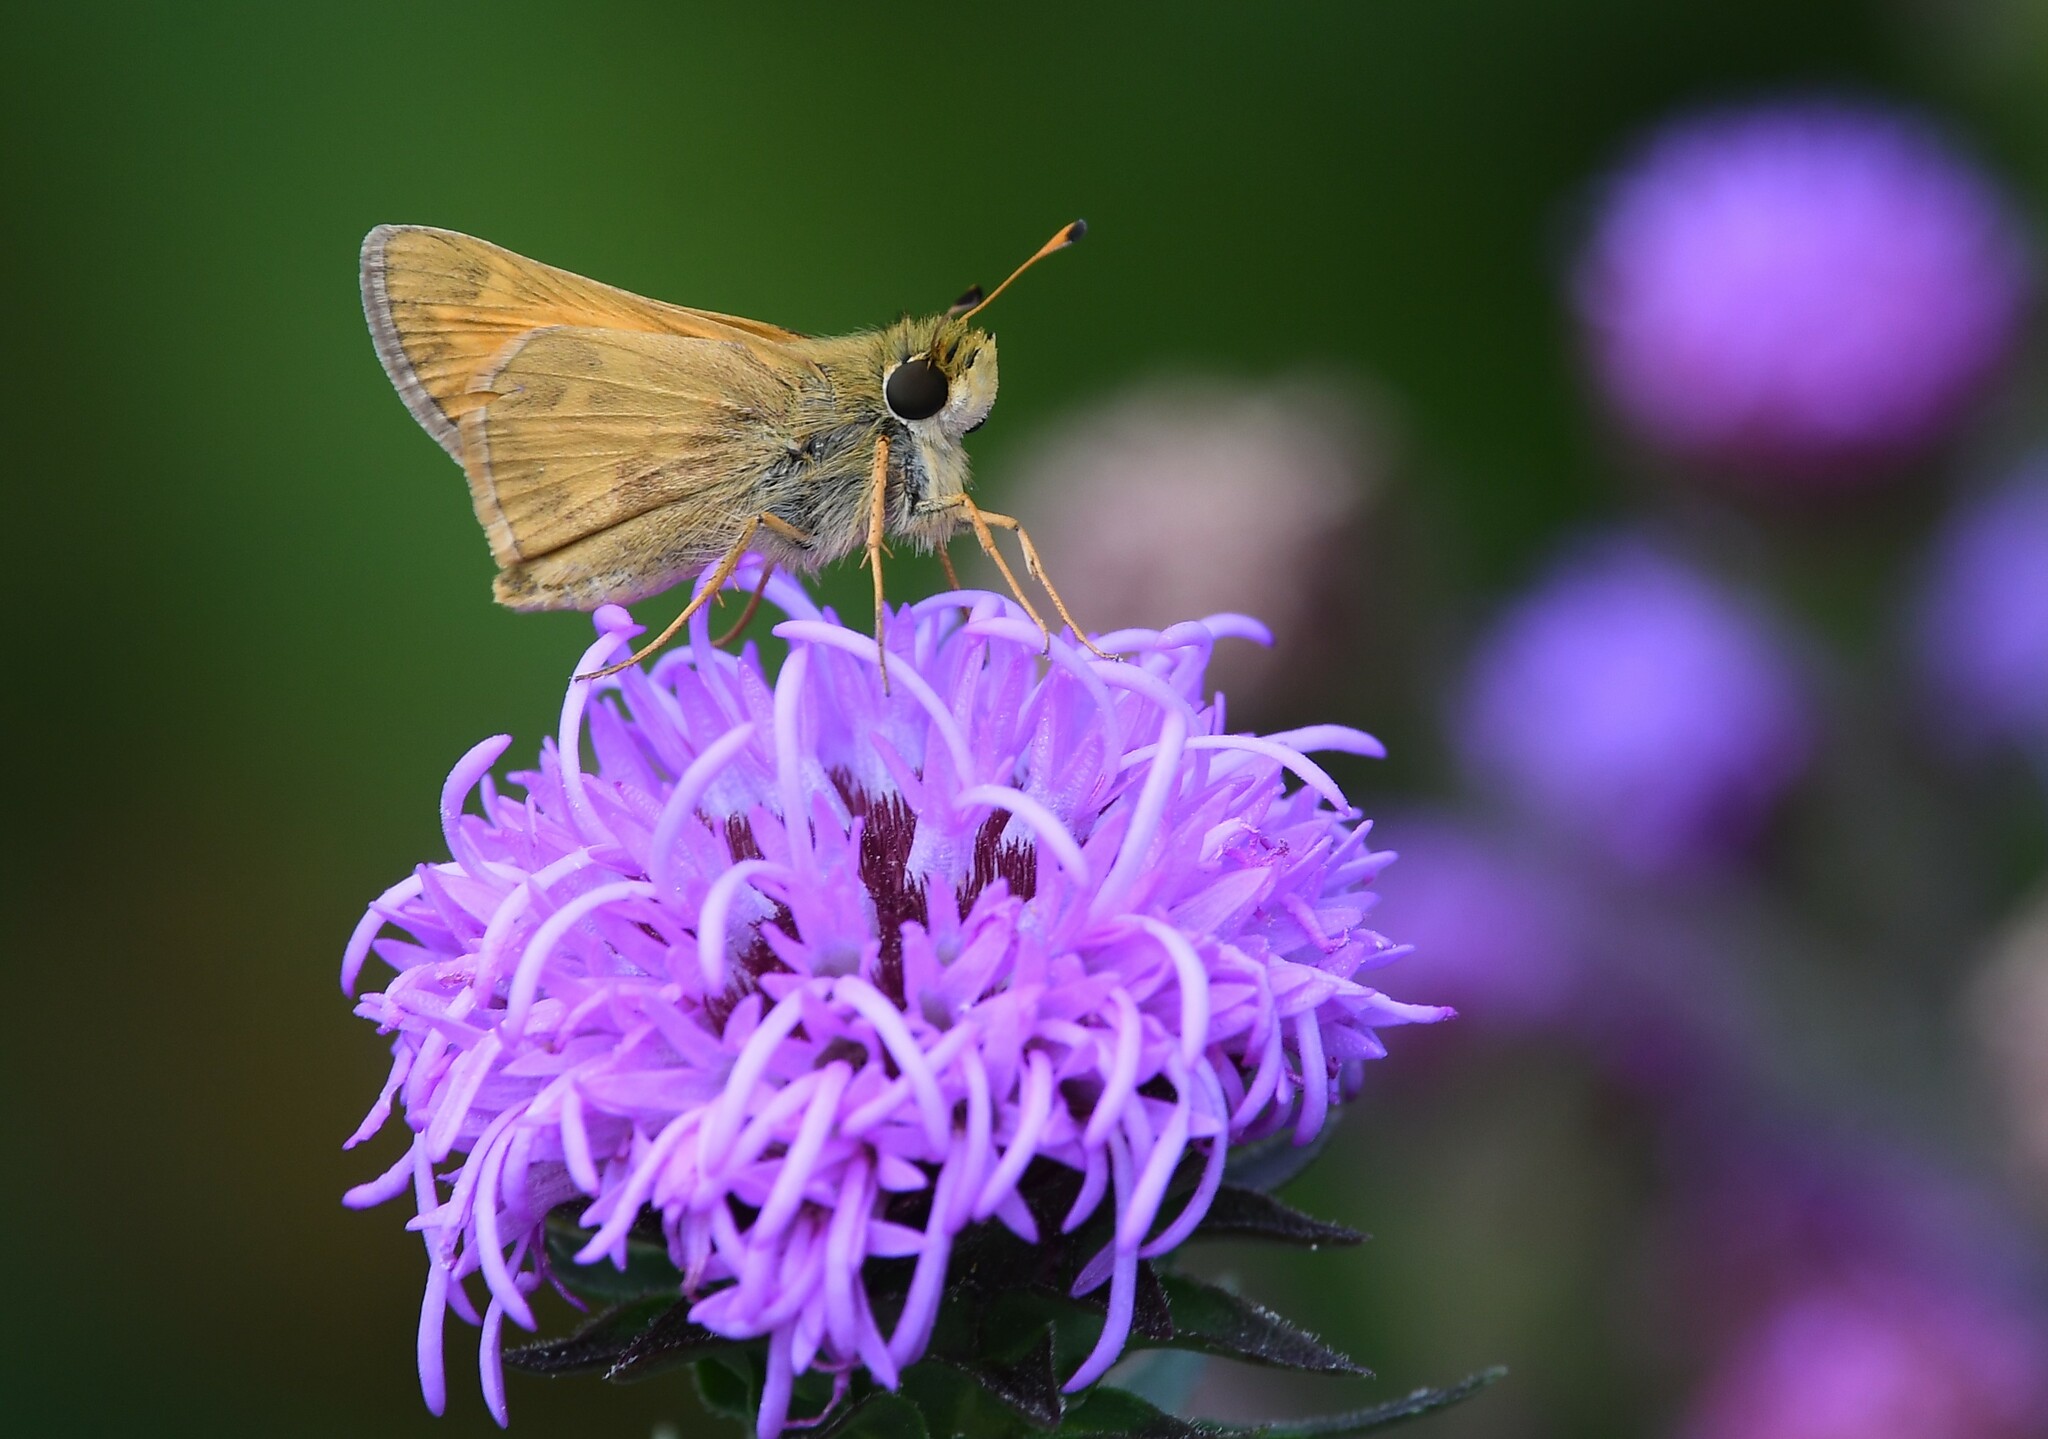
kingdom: Animalia
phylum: Arthropoda
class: Insecta
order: Lepidoptera
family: Hesperiidae
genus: Atalopedes
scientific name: Atalopedes
